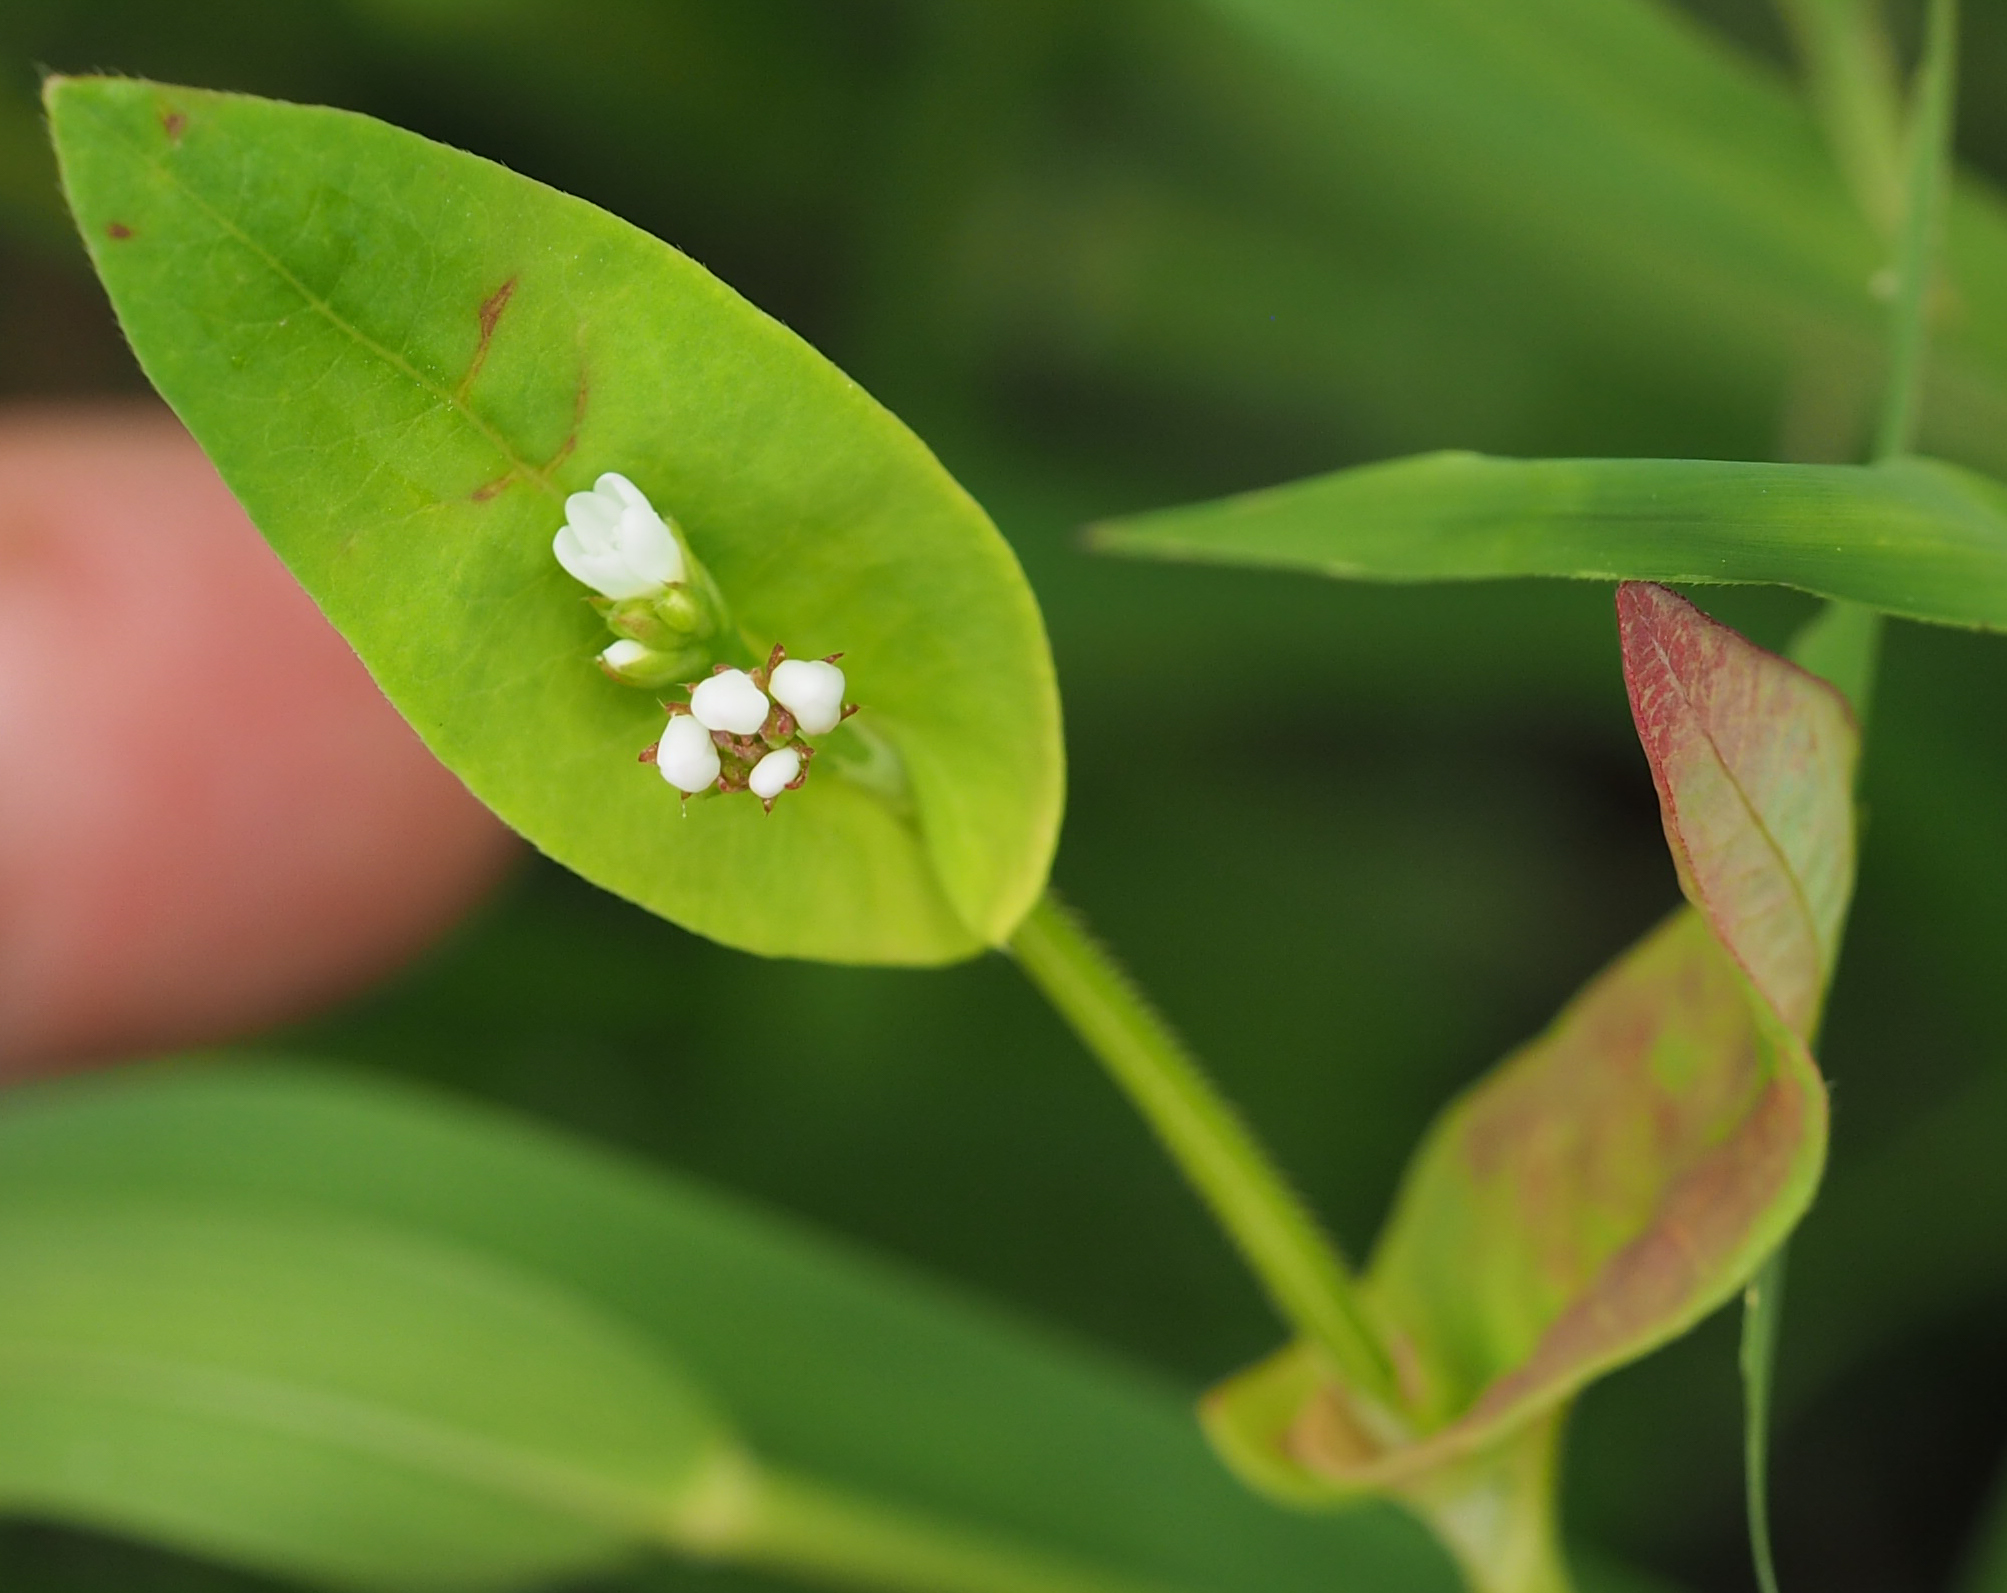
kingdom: Plantae
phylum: Tracheophyta
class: Magnoliopsida
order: Caryophyllales
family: Polygonaceae
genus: Persicaria
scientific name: Persicaria sagittata
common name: American tearthumb
